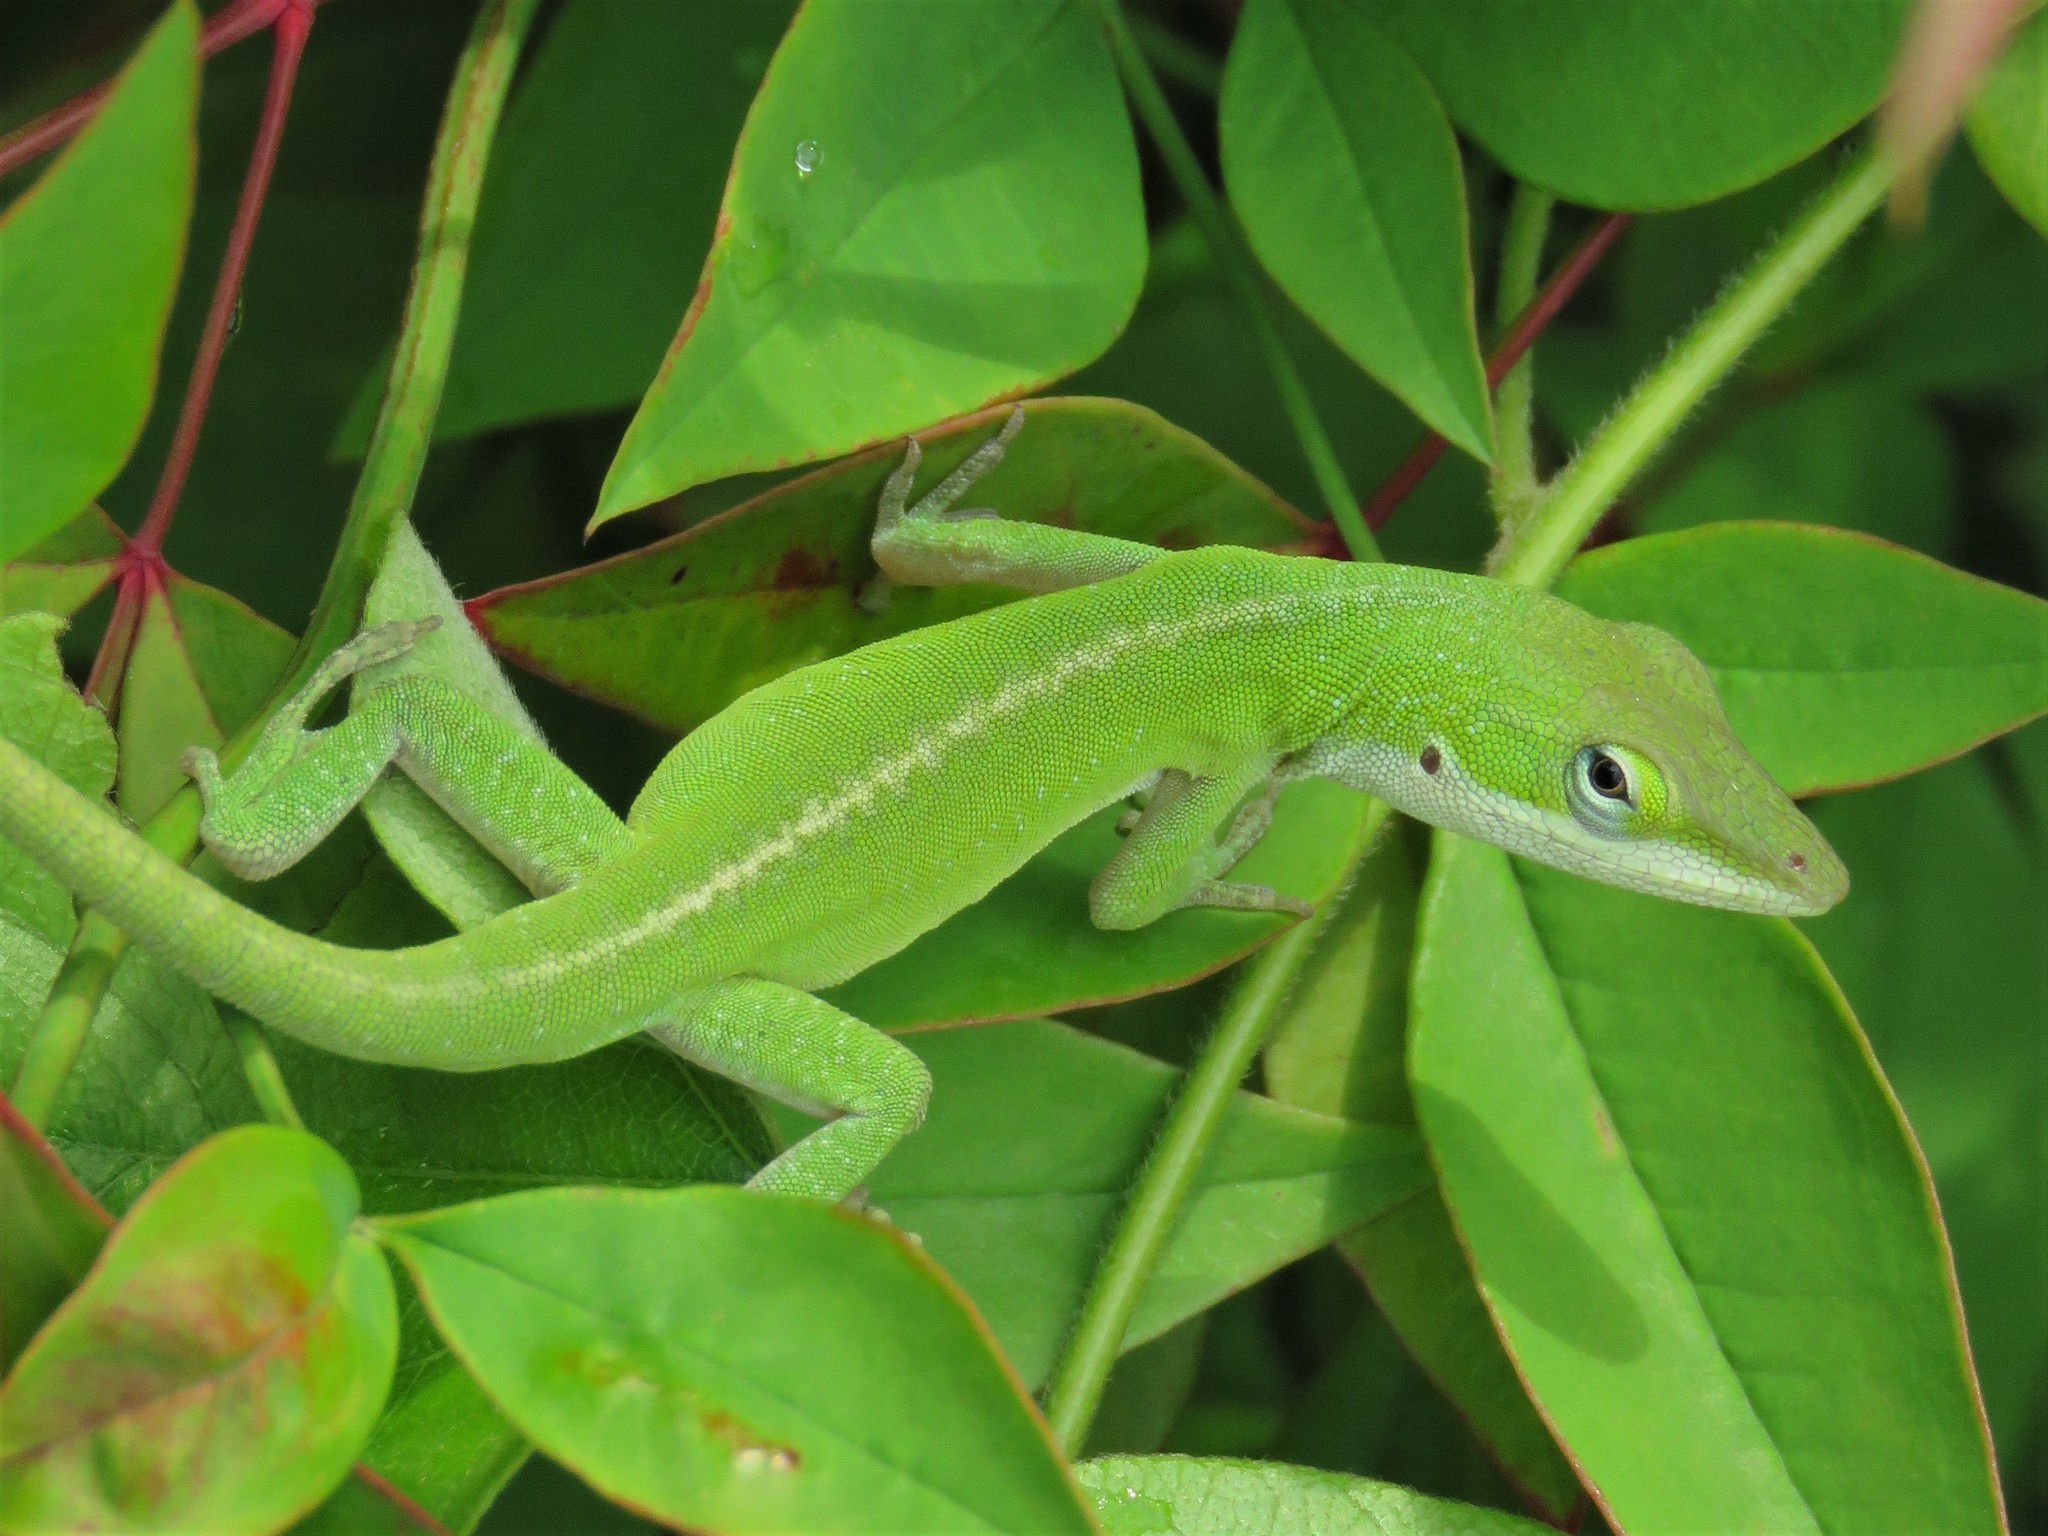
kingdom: Animalia
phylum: Chordata
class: Squamata
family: Dactyloidae
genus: Anolis
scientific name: Anolis carolinensis
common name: Green anole
